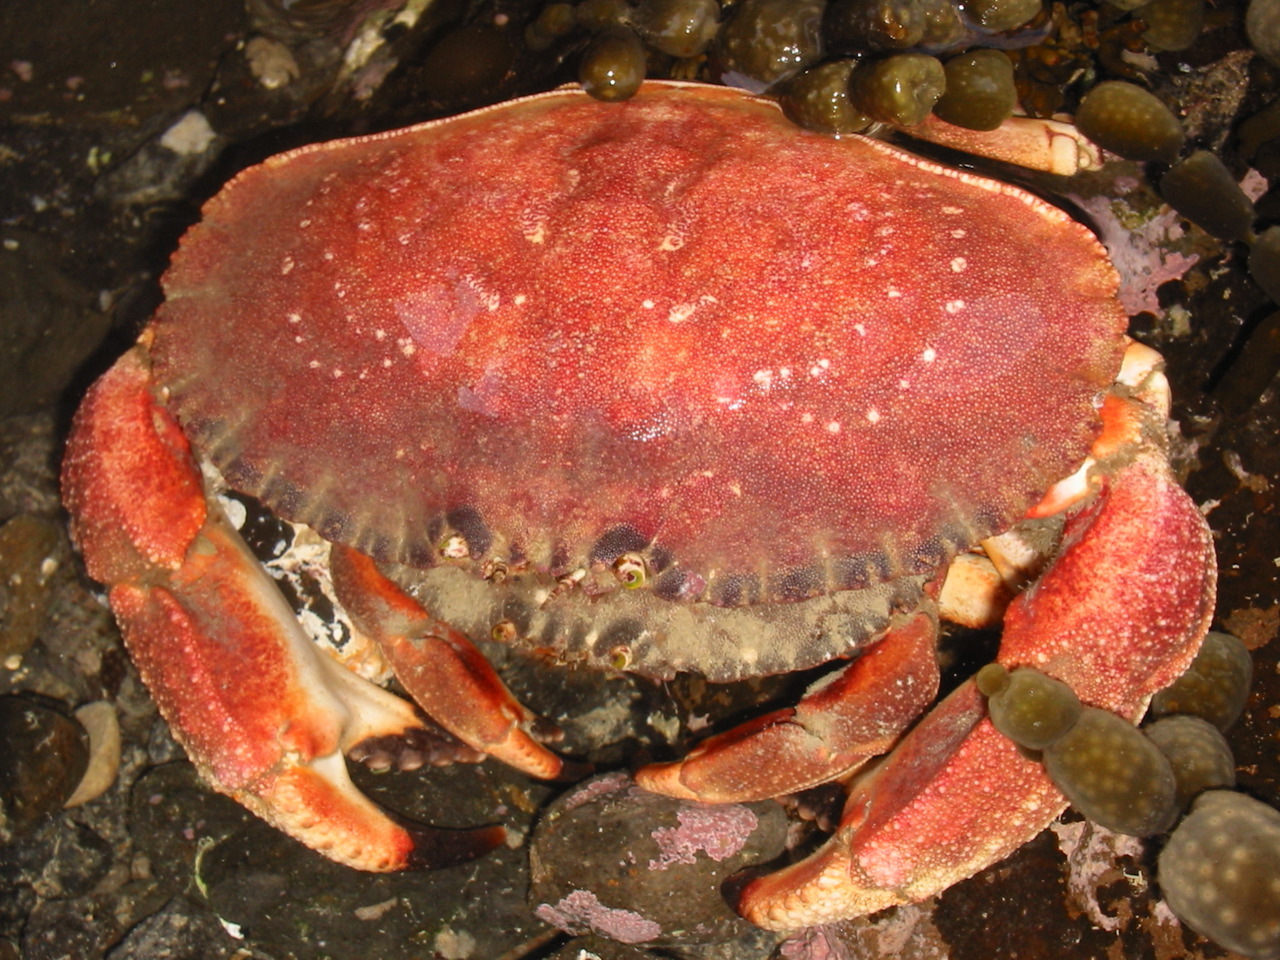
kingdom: Animalia
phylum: Arthropoda
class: Malacostraca
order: Decapoda
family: Cancridae
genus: Metacarcinus
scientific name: Metacarcinus novaezelandiae
